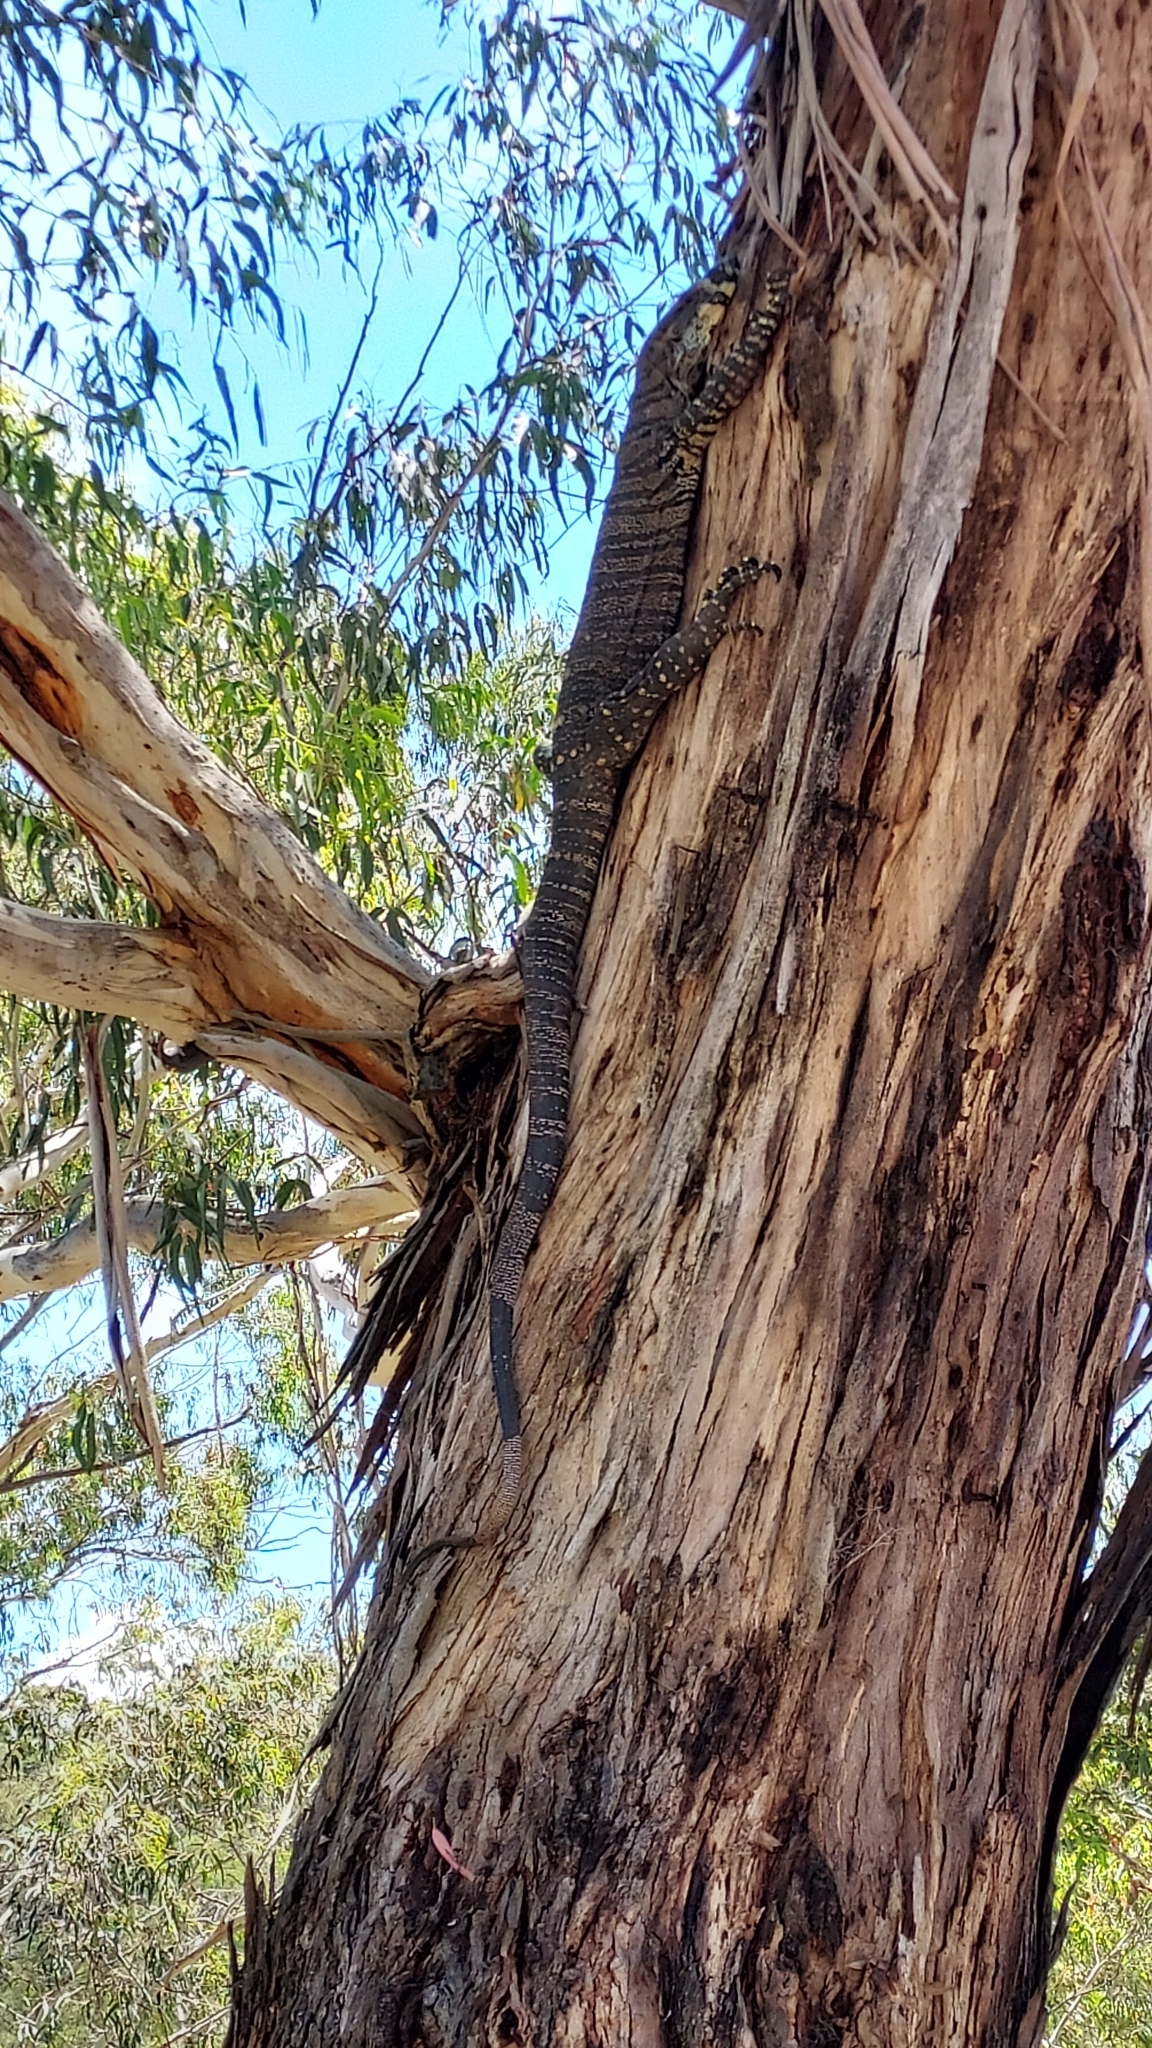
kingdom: Animalia
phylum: Chordata
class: Squamata
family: Varanidae
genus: Varanus
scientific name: Varanus varius
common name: Lace monitor
